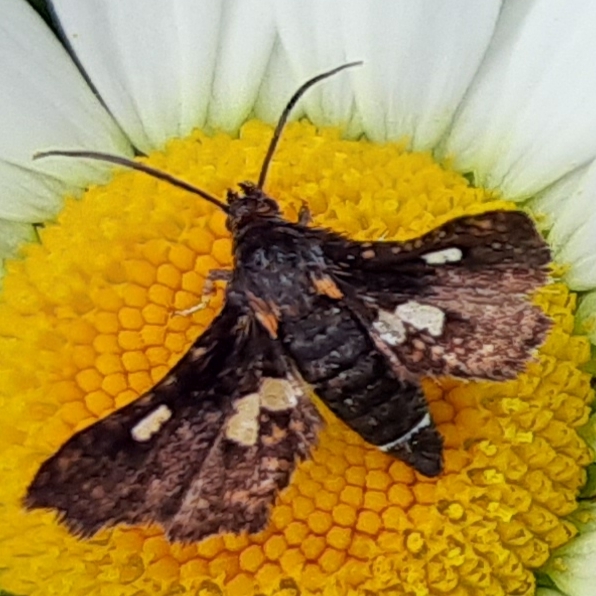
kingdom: Animalia
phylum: Arthropoda
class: Insecta
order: Lepidoptera
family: Thyrididae
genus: Thyris
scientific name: Thyris maculata
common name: Spotted thyris moth
